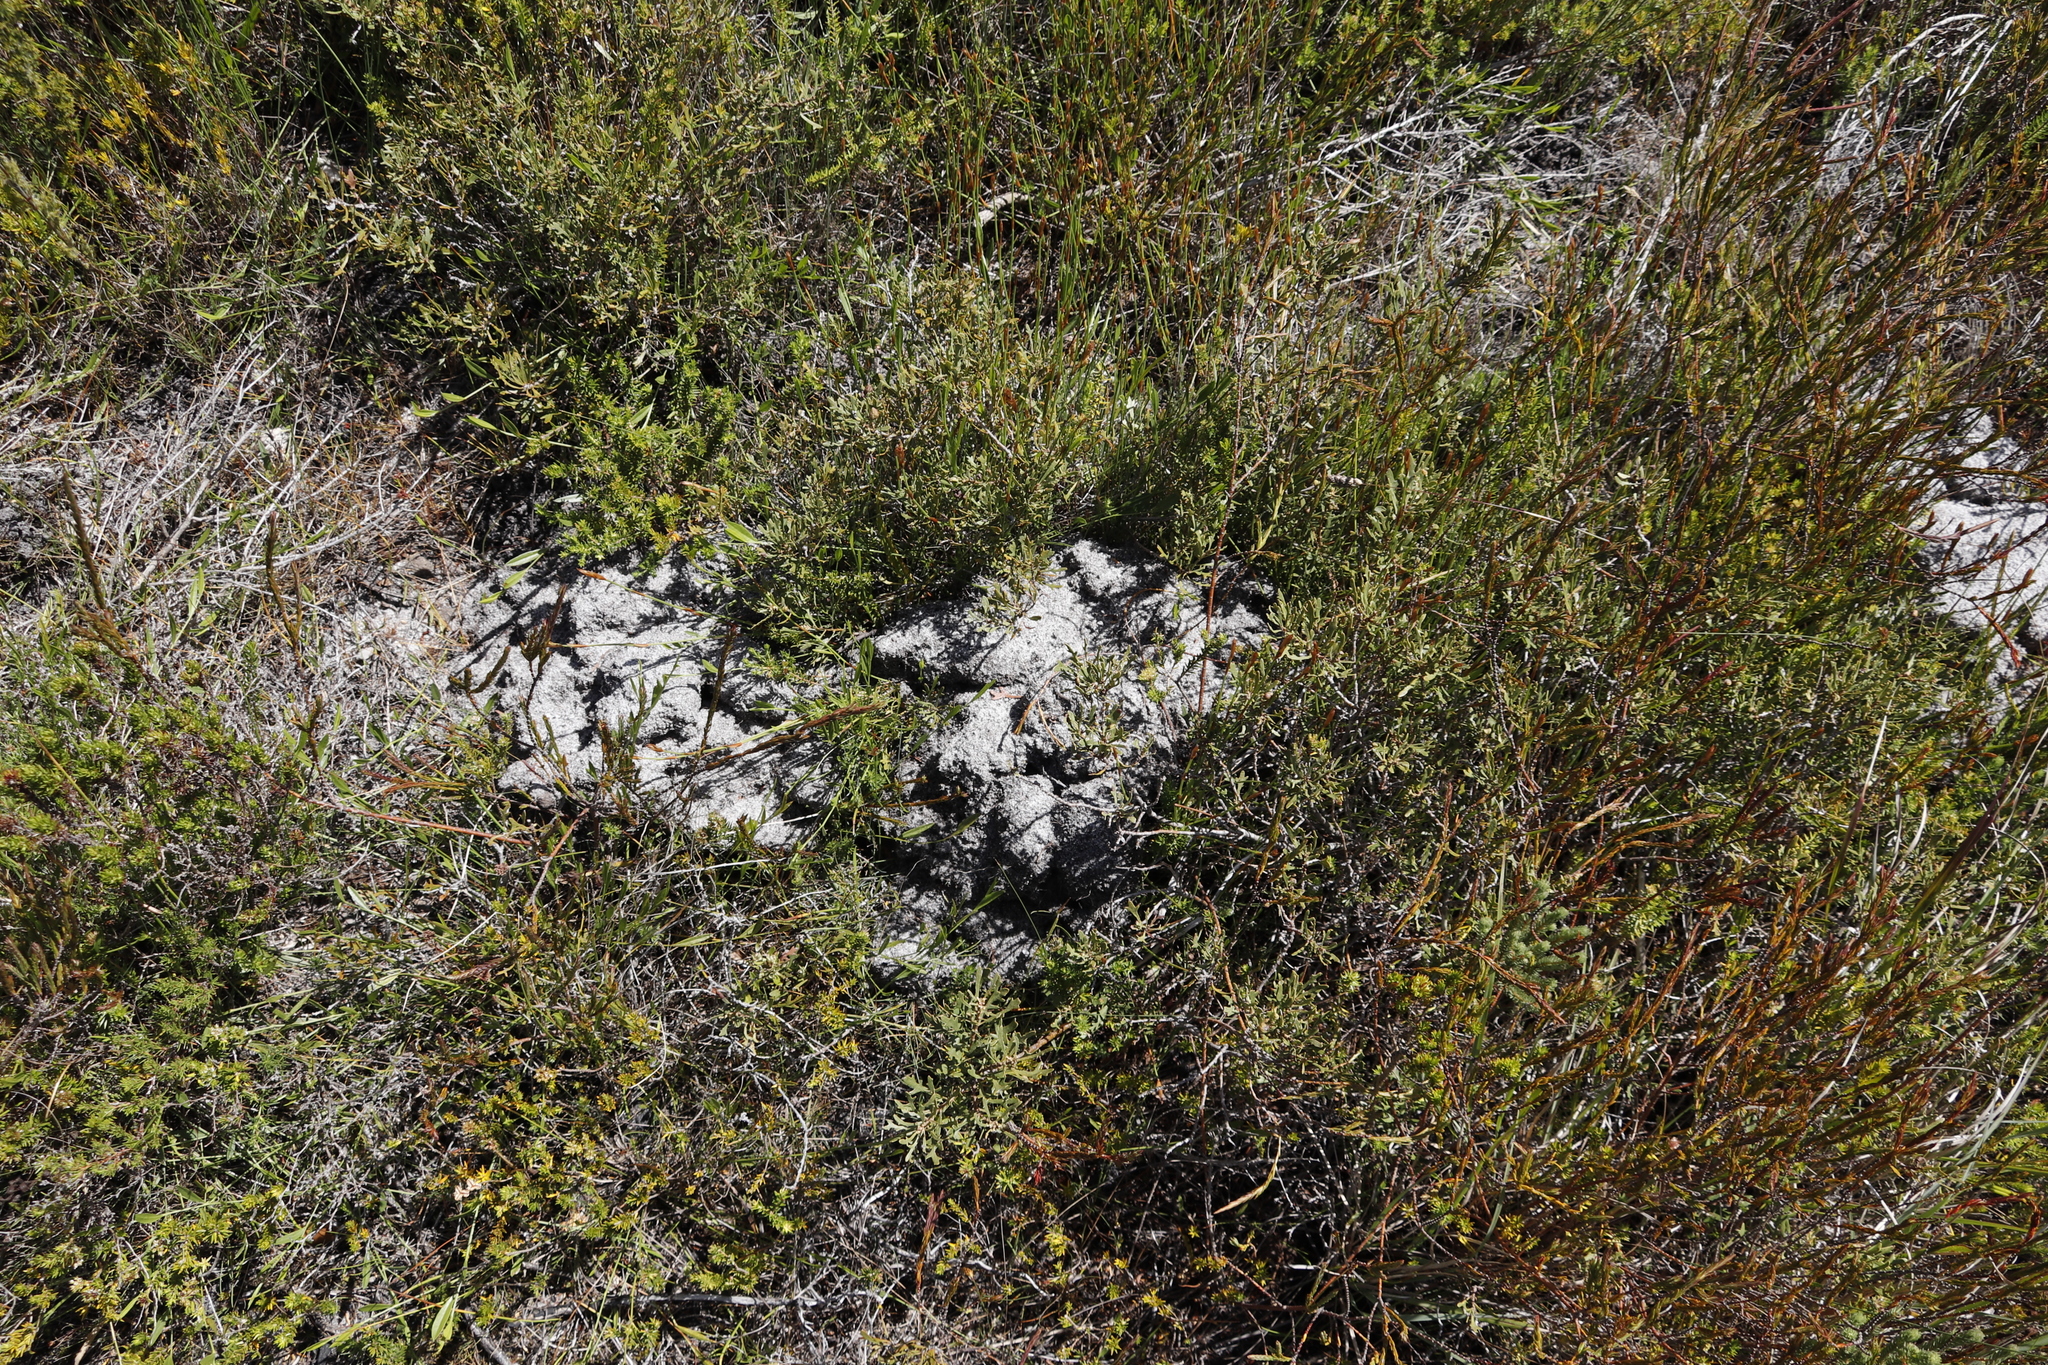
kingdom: Animalia
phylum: Chordata
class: Mammalia
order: Rodentia
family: Bathyergidae
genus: Georychus
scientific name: Georychus capensis
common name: Cape mole-rat
